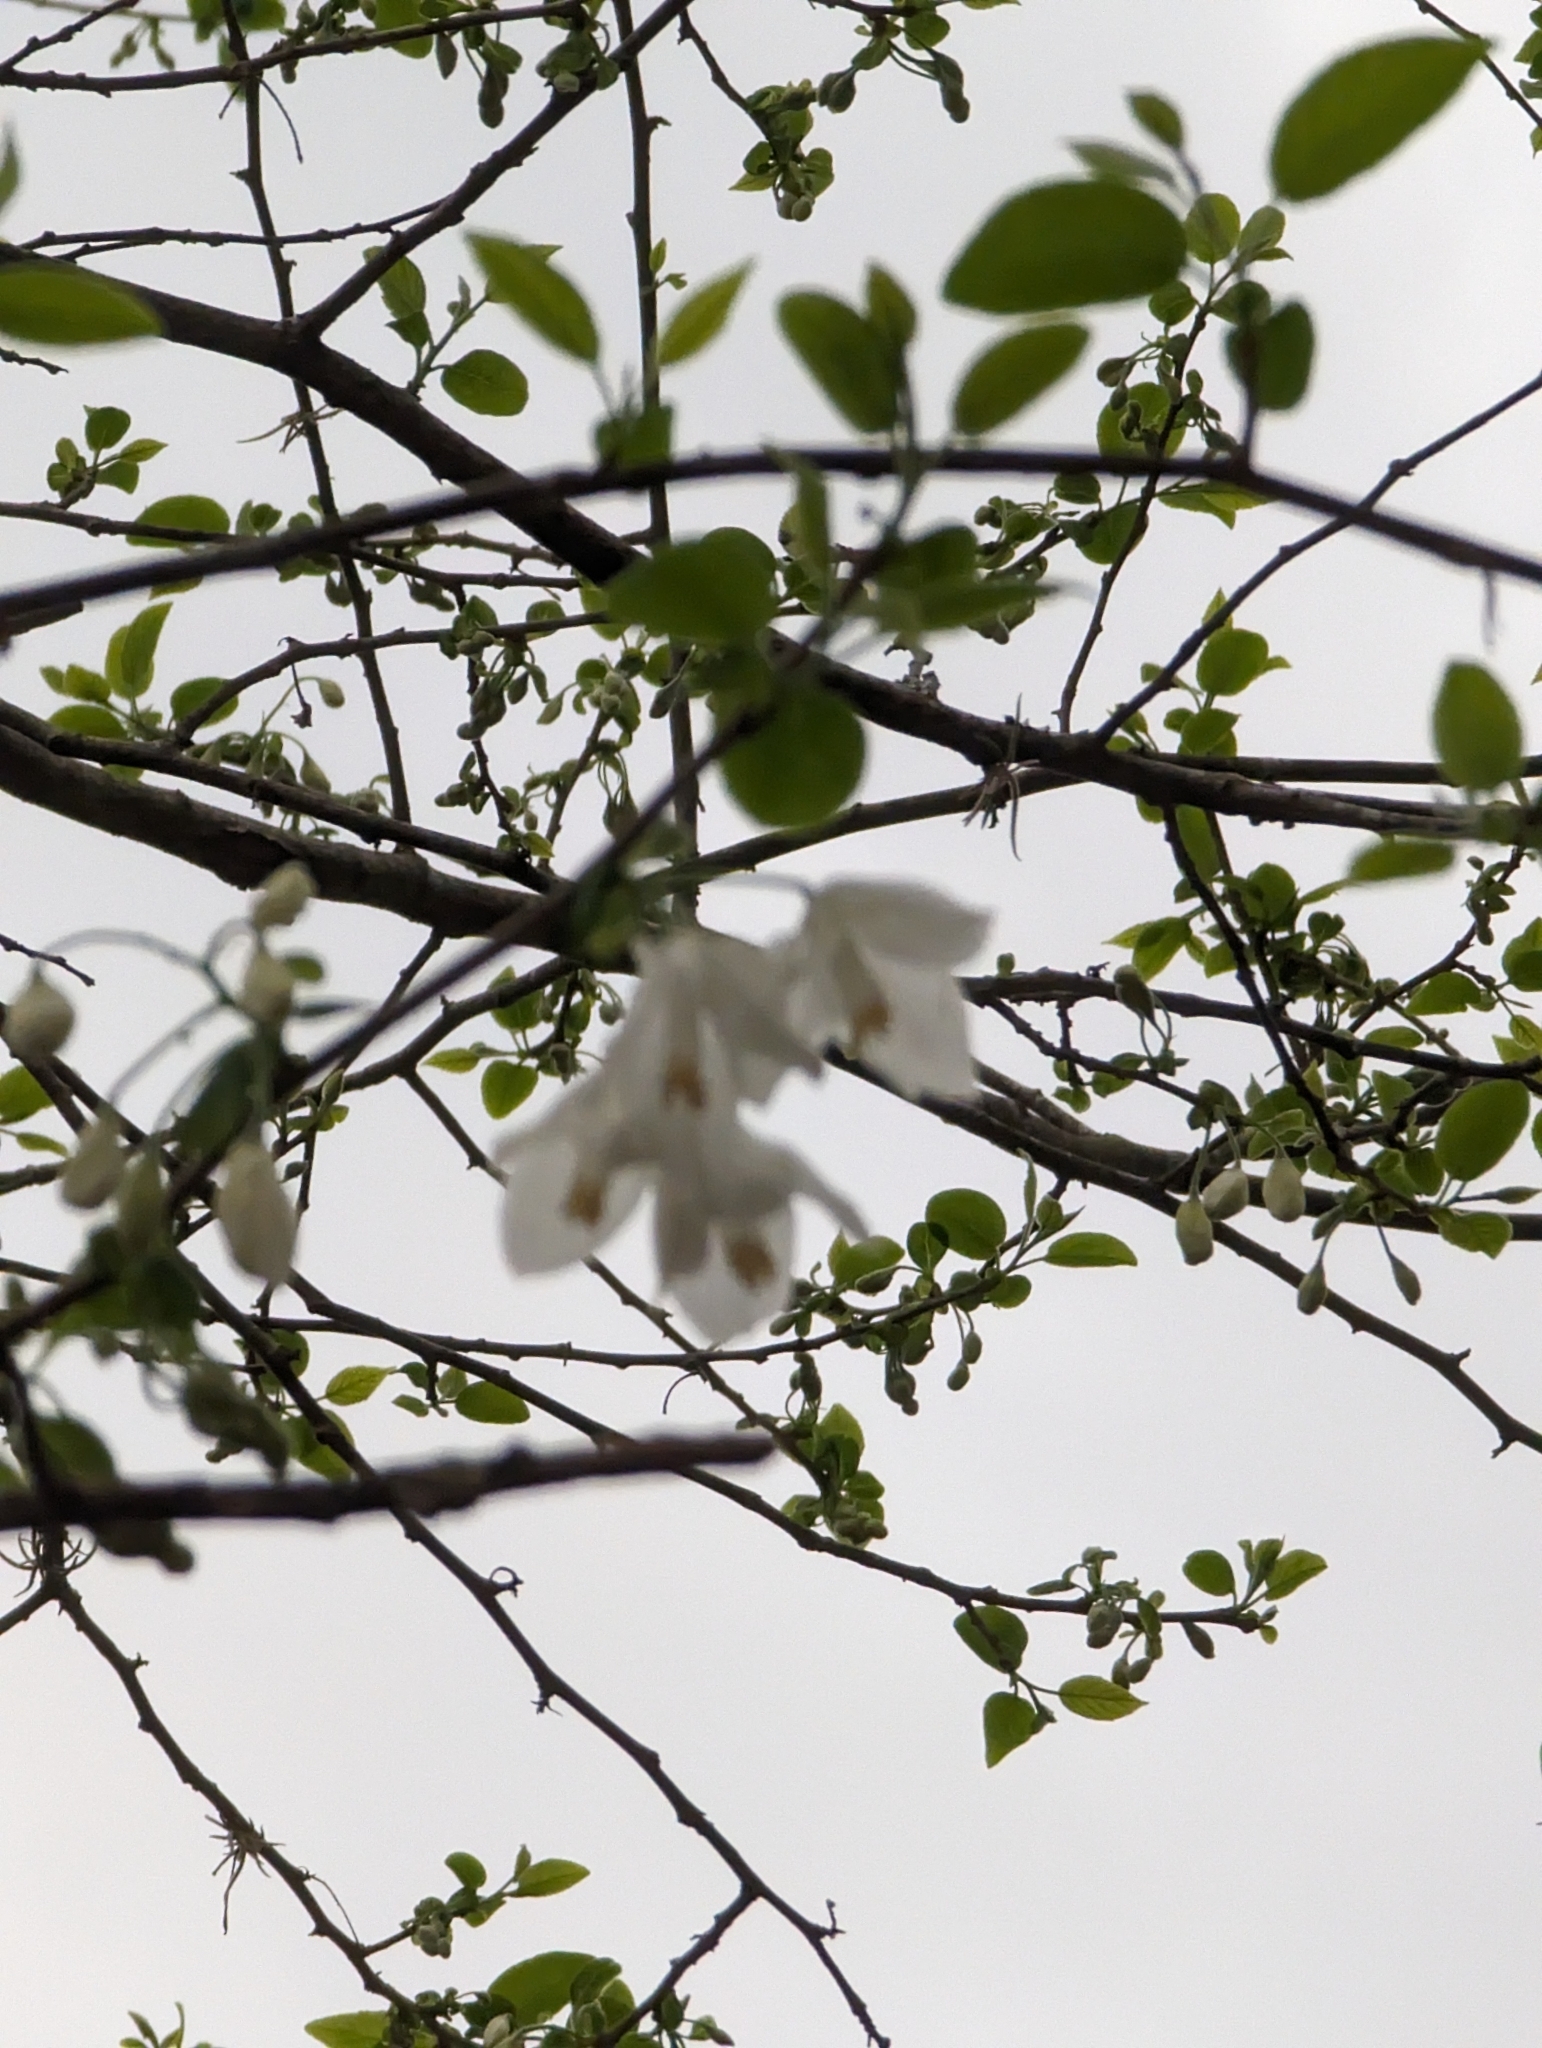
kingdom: Plantae
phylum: Tracheophyta
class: Magnoliopsida
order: Ericales
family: Styracaceae
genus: Halesia
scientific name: Halesia diptera
